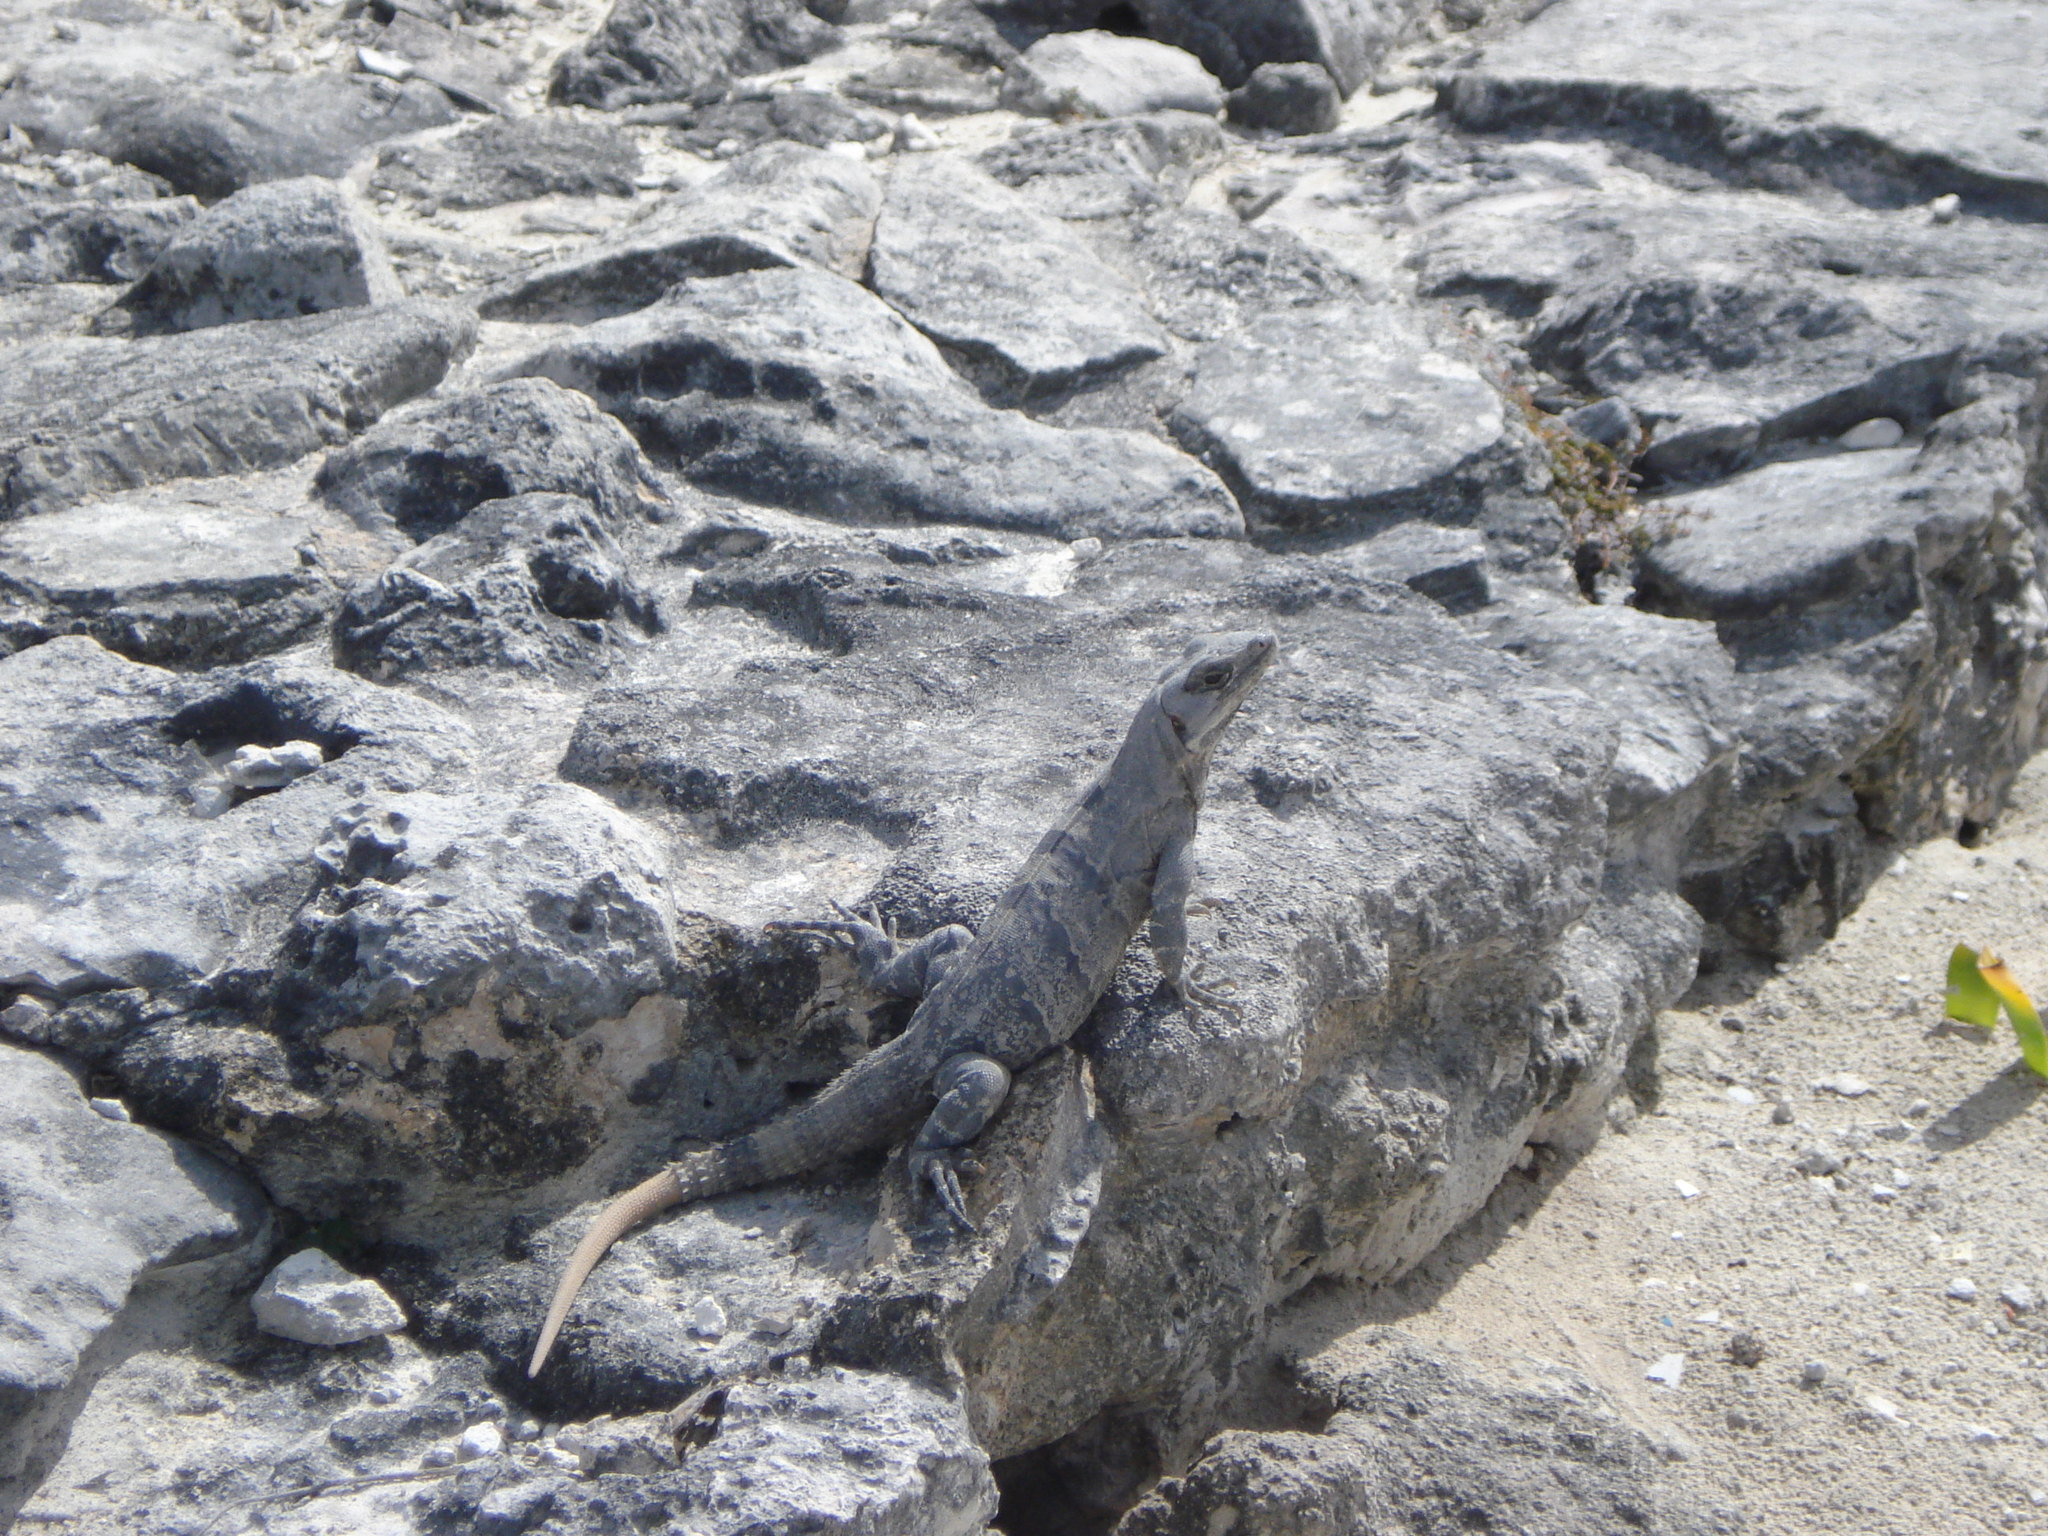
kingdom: Animalia
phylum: Chordata
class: Squamata
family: Iguanidae
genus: Ctenosaura
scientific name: Ctenosaura similis
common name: Black spiny-tailed iguana
